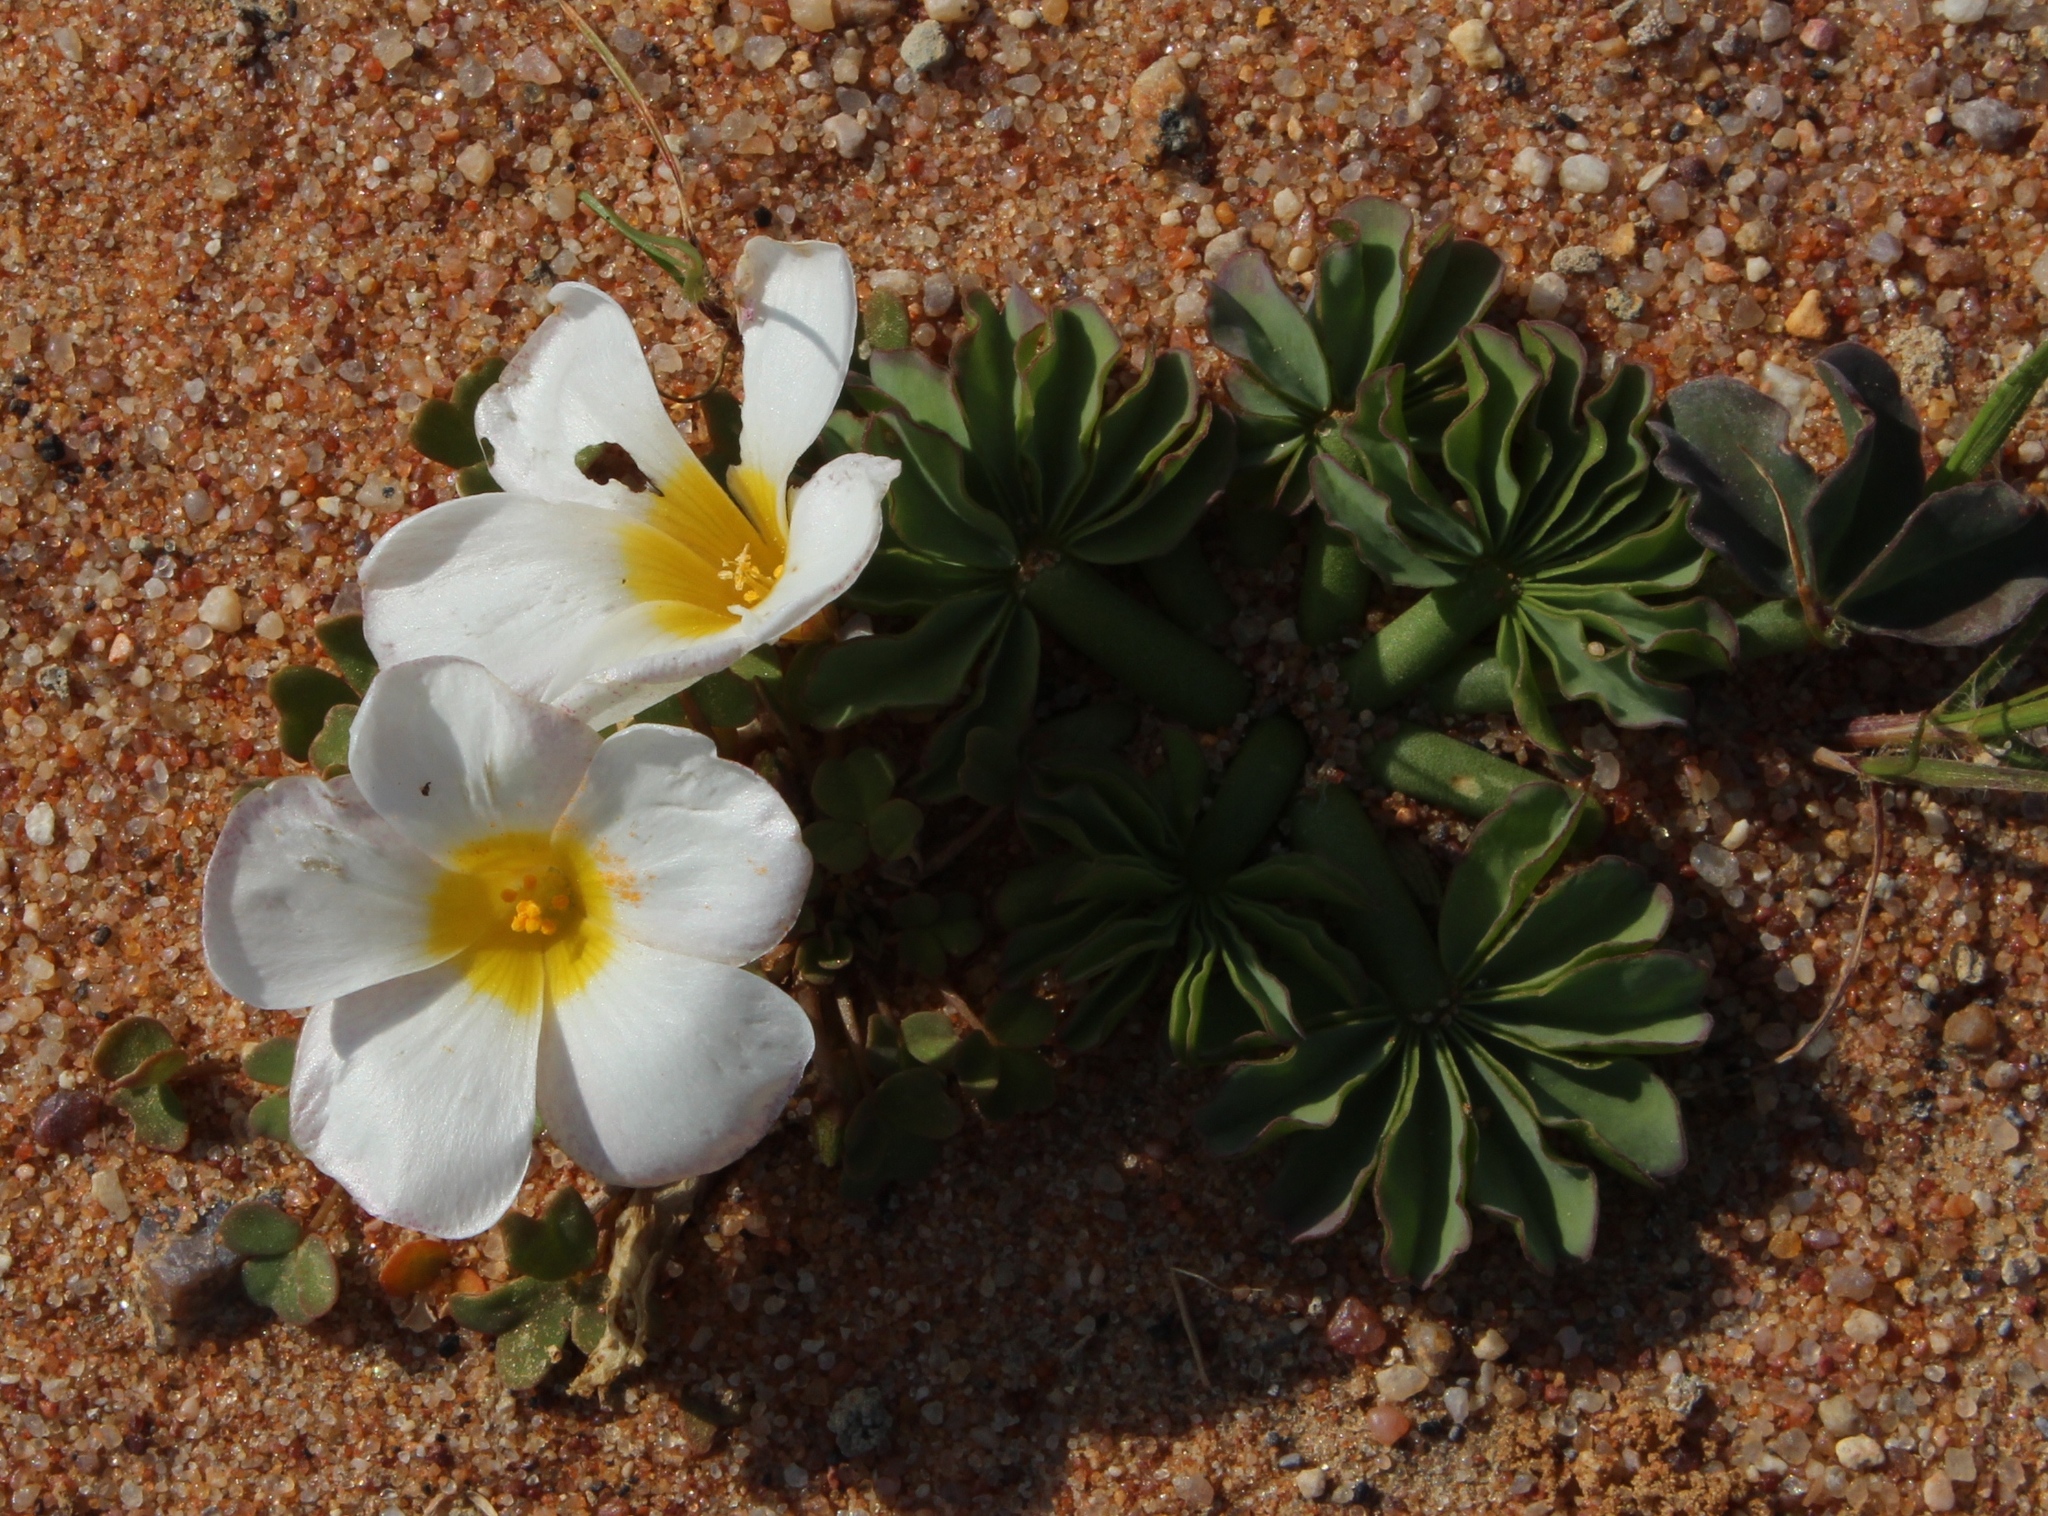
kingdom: Plantae
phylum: Tracheophyta
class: Magnoliopsida
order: Oxalidales
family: Oxalidaceae
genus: Oxalis
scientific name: Oxalis flava
